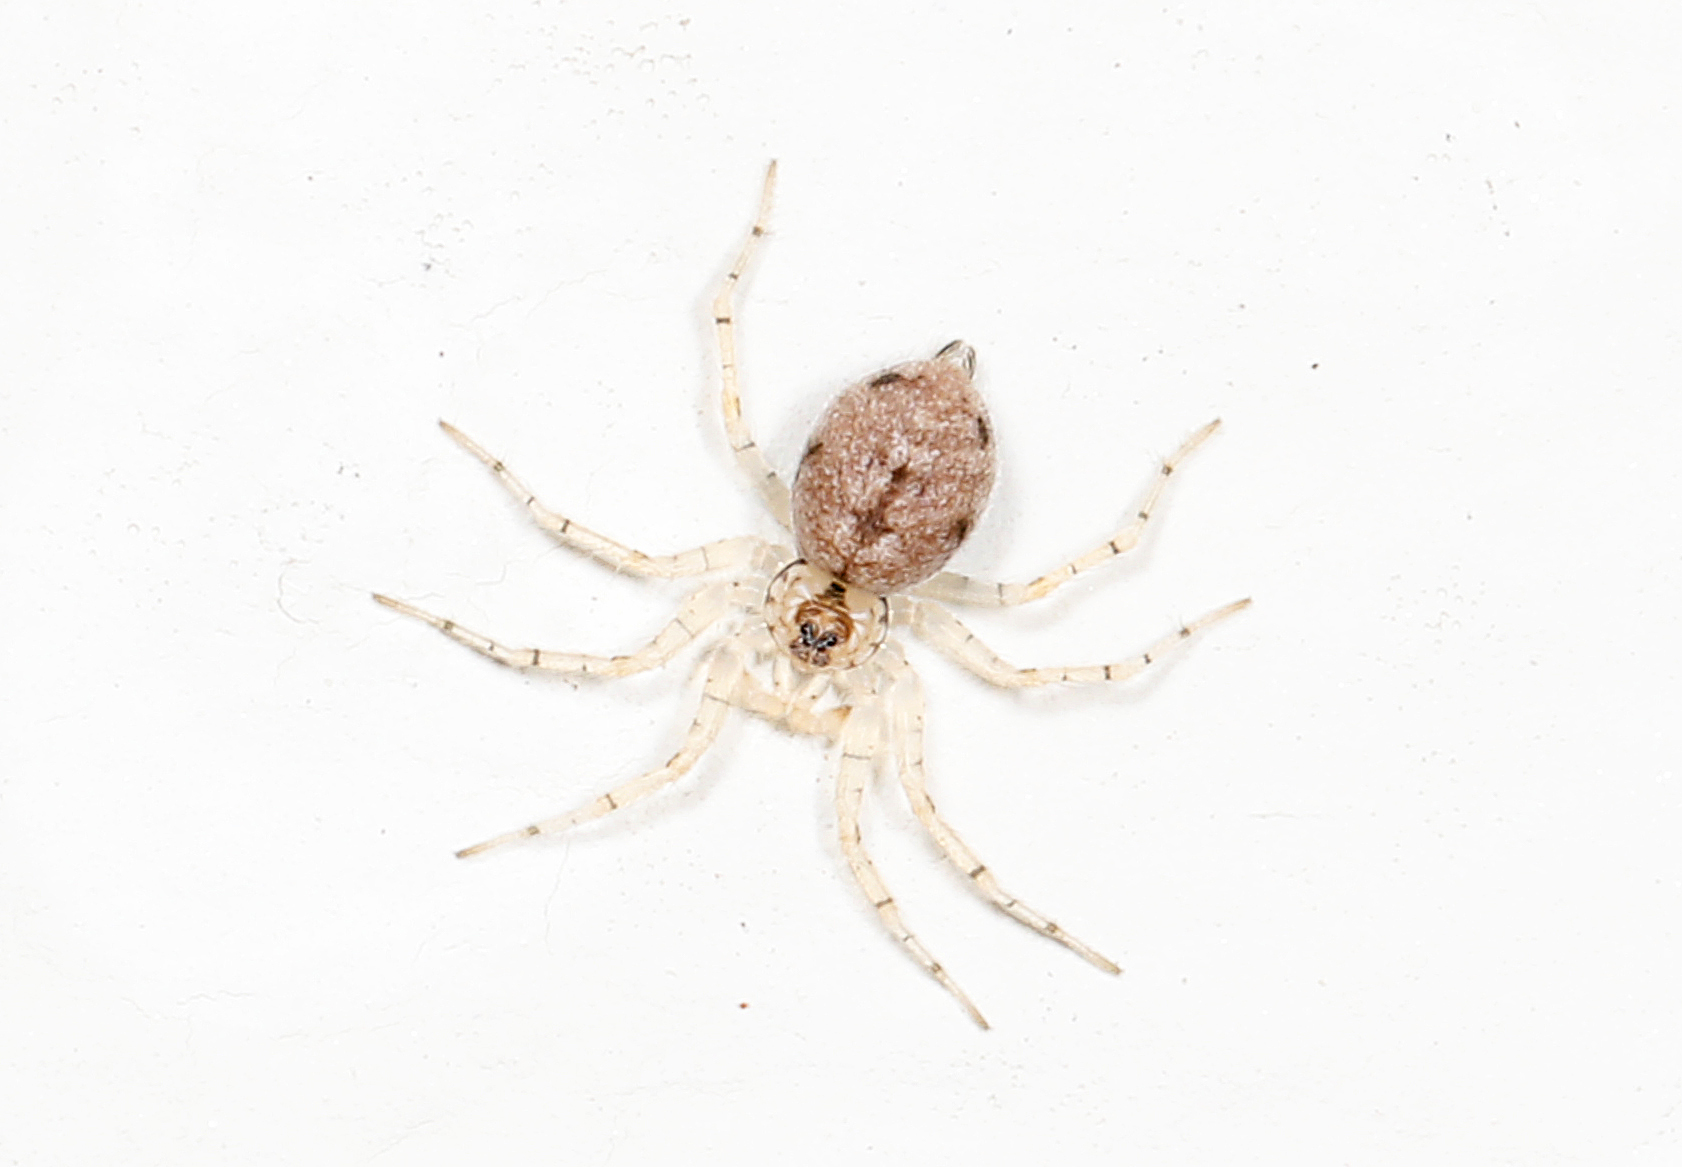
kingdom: Animalia
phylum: Arthropoda
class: Arachnida
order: Araneae
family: Oecobiidae
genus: Oecobius
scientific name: Oecobius navus
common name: Flatmesh weaver
